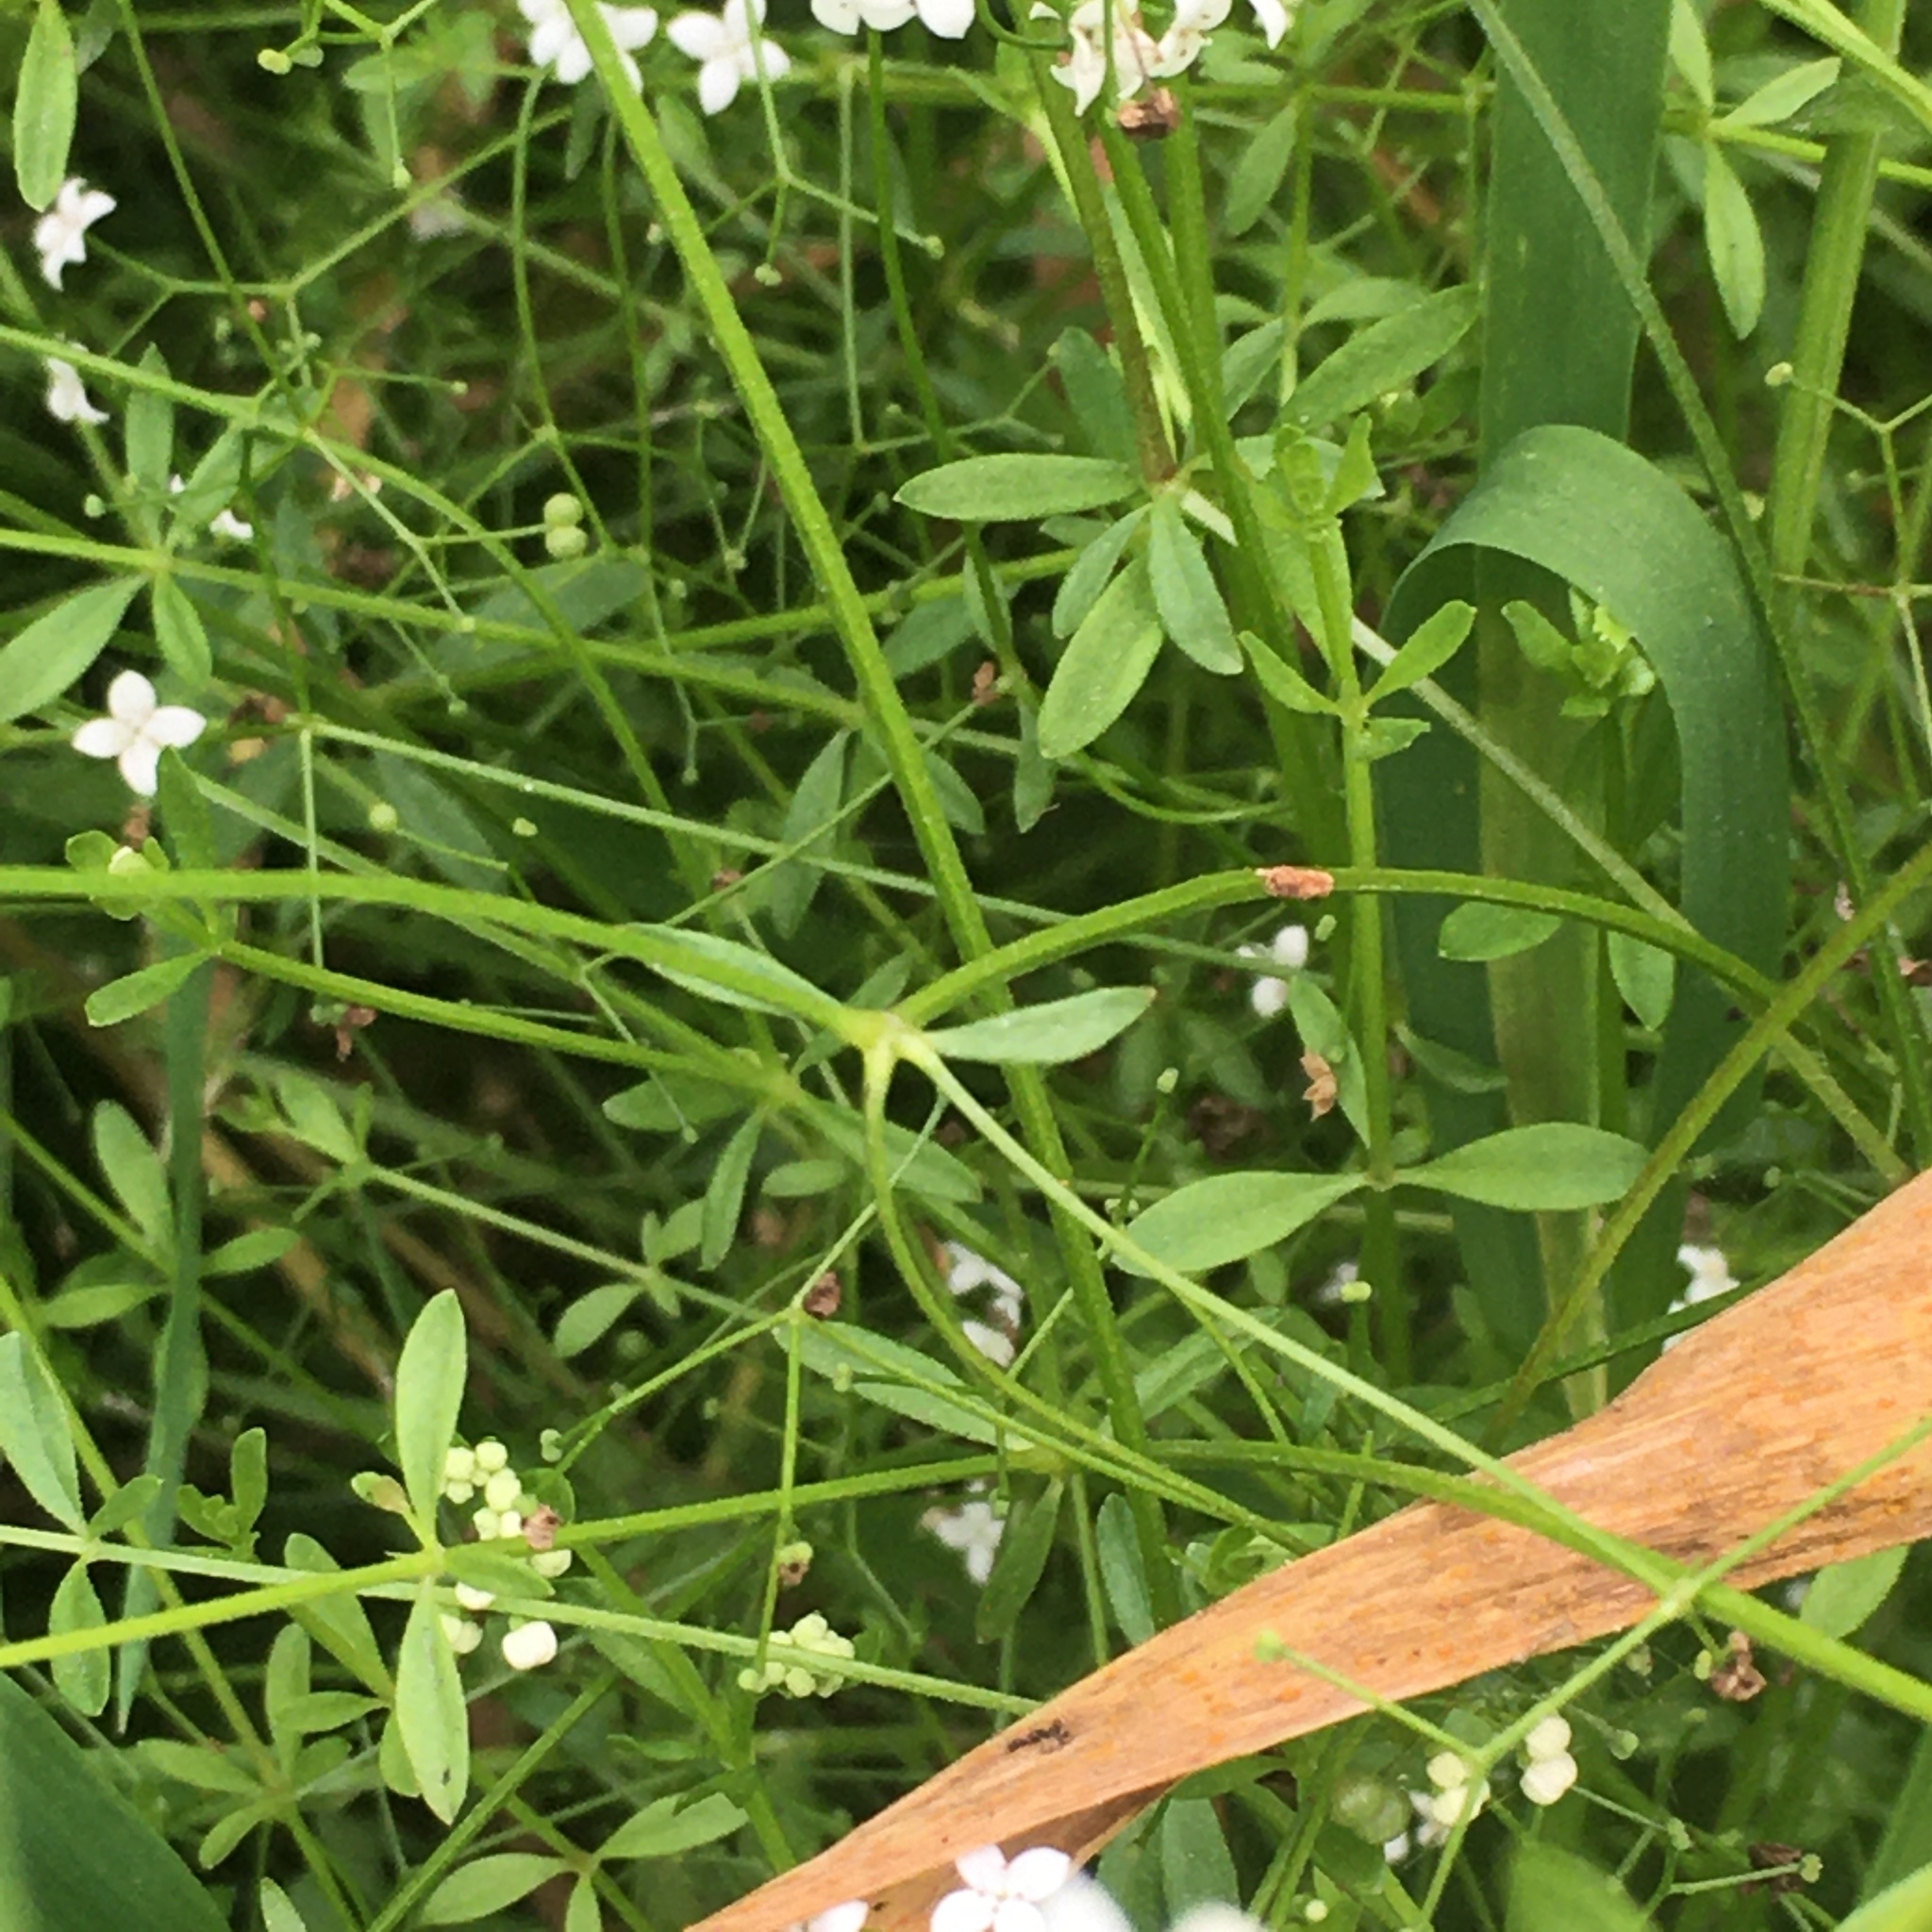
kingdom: Plantae
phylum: Tracheophyta
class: Magnoliopsida
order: Gentianales
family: Rubiaceae
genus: Galium
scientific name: Galium palustre
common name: Common marsh-bedstraw
